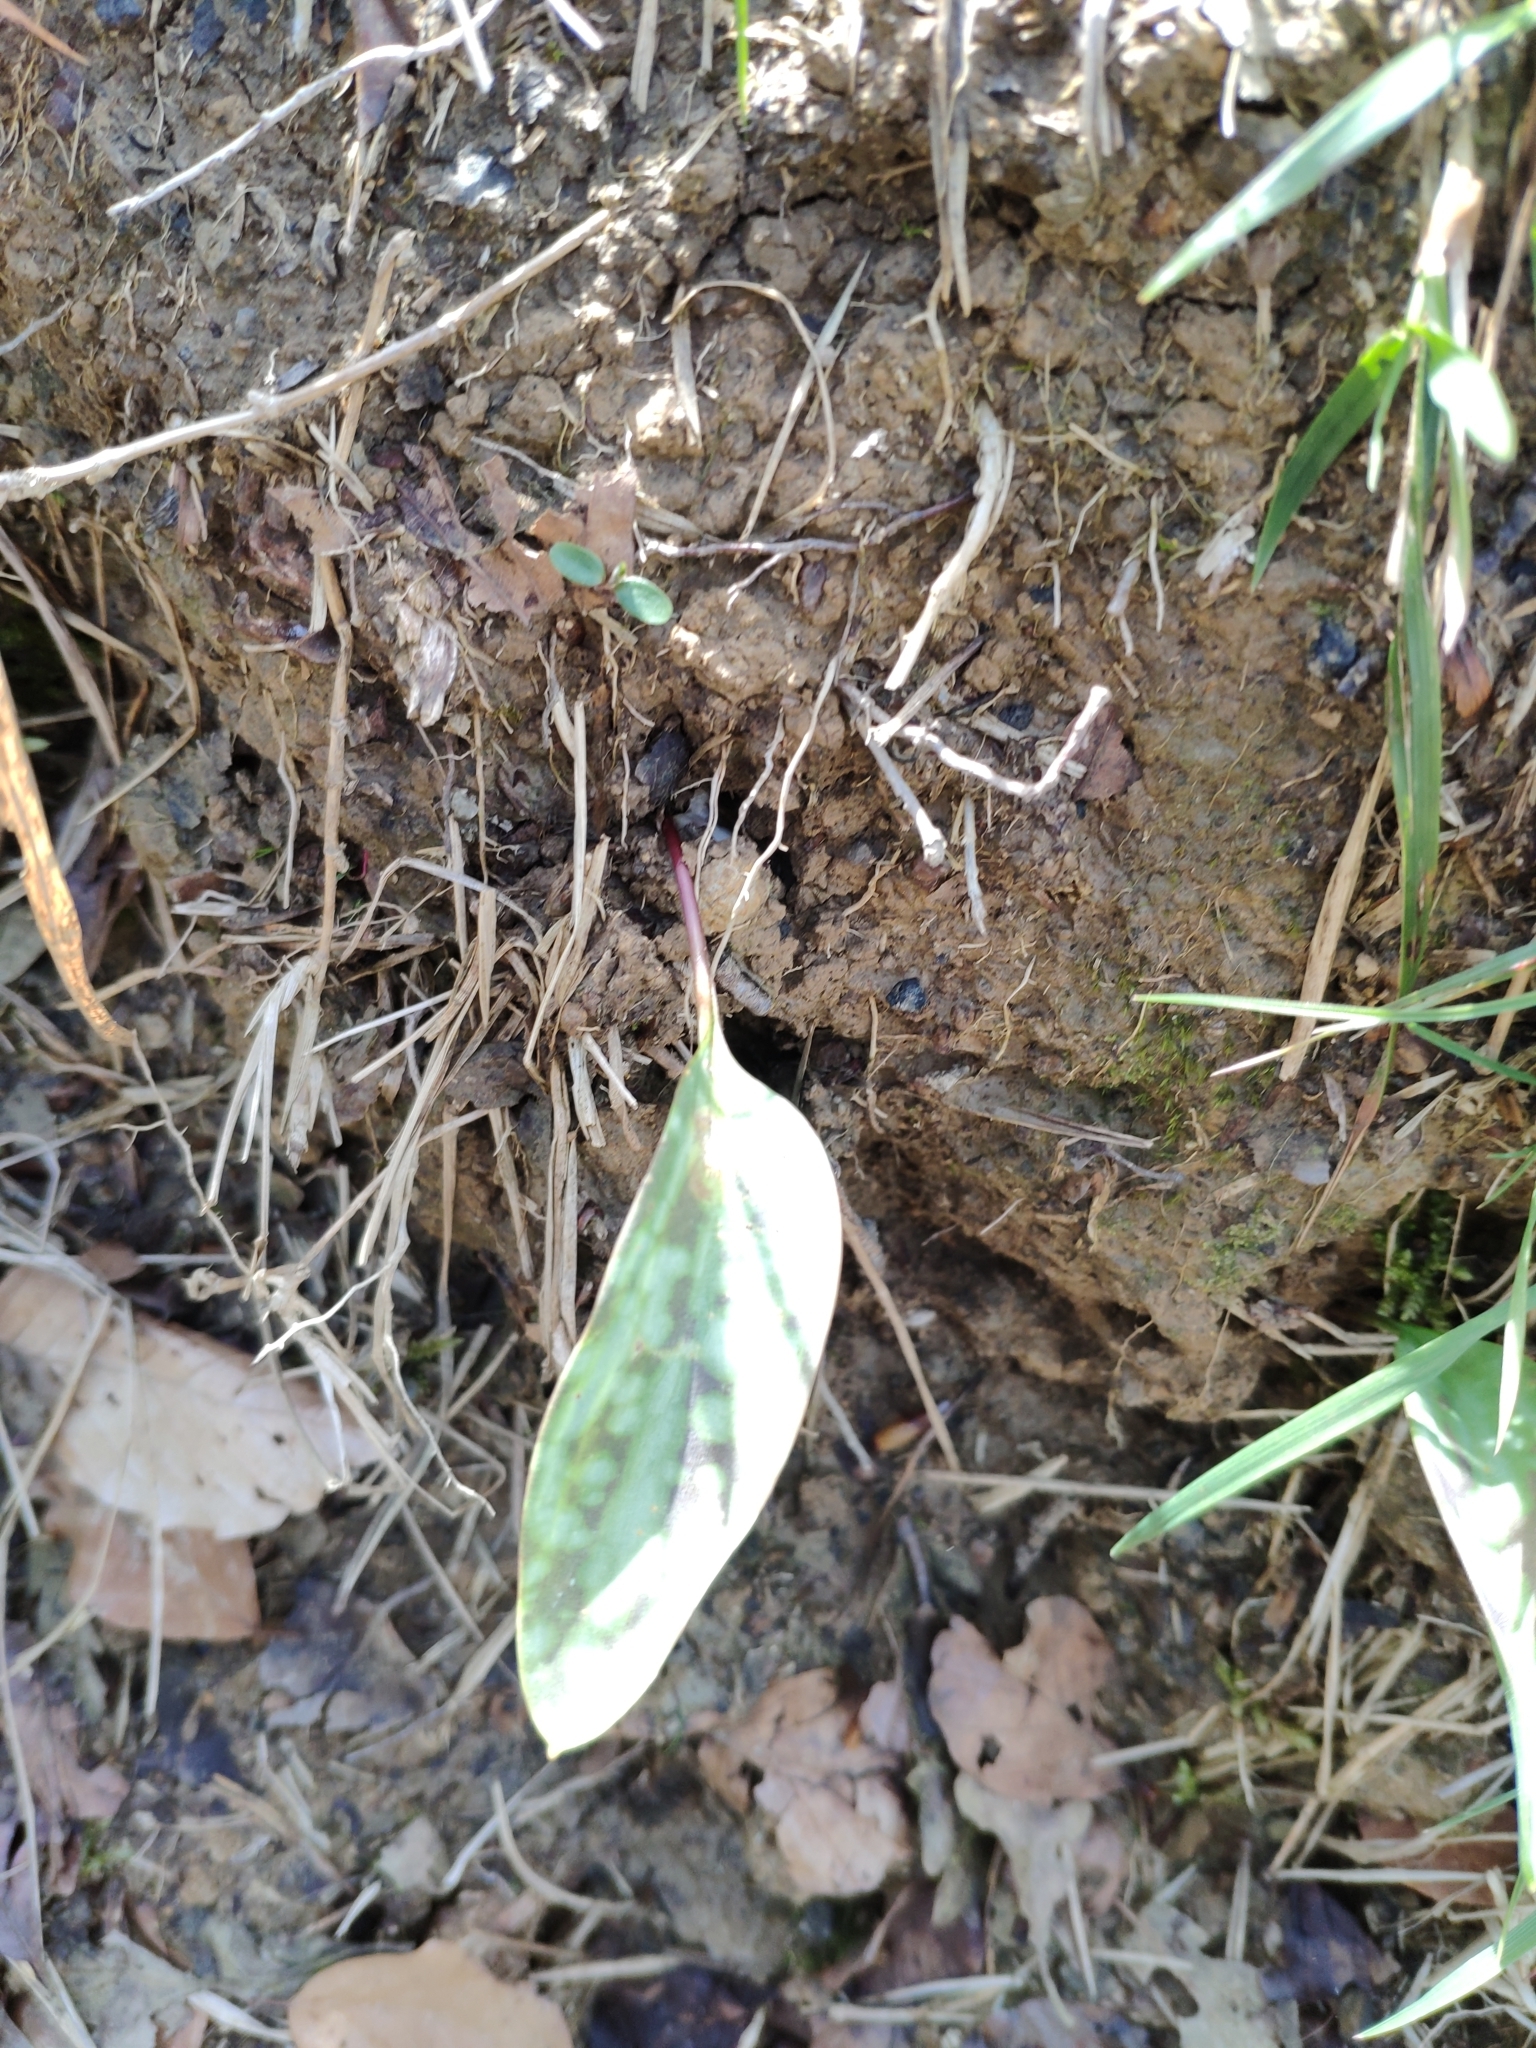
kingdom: Plantae
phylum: Tracheophyta
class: Liliopsida
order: Liliales
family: Liliaceae
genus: Erythronium
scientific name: Erythronium dens-canis
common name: Dog's-tooth-violet
